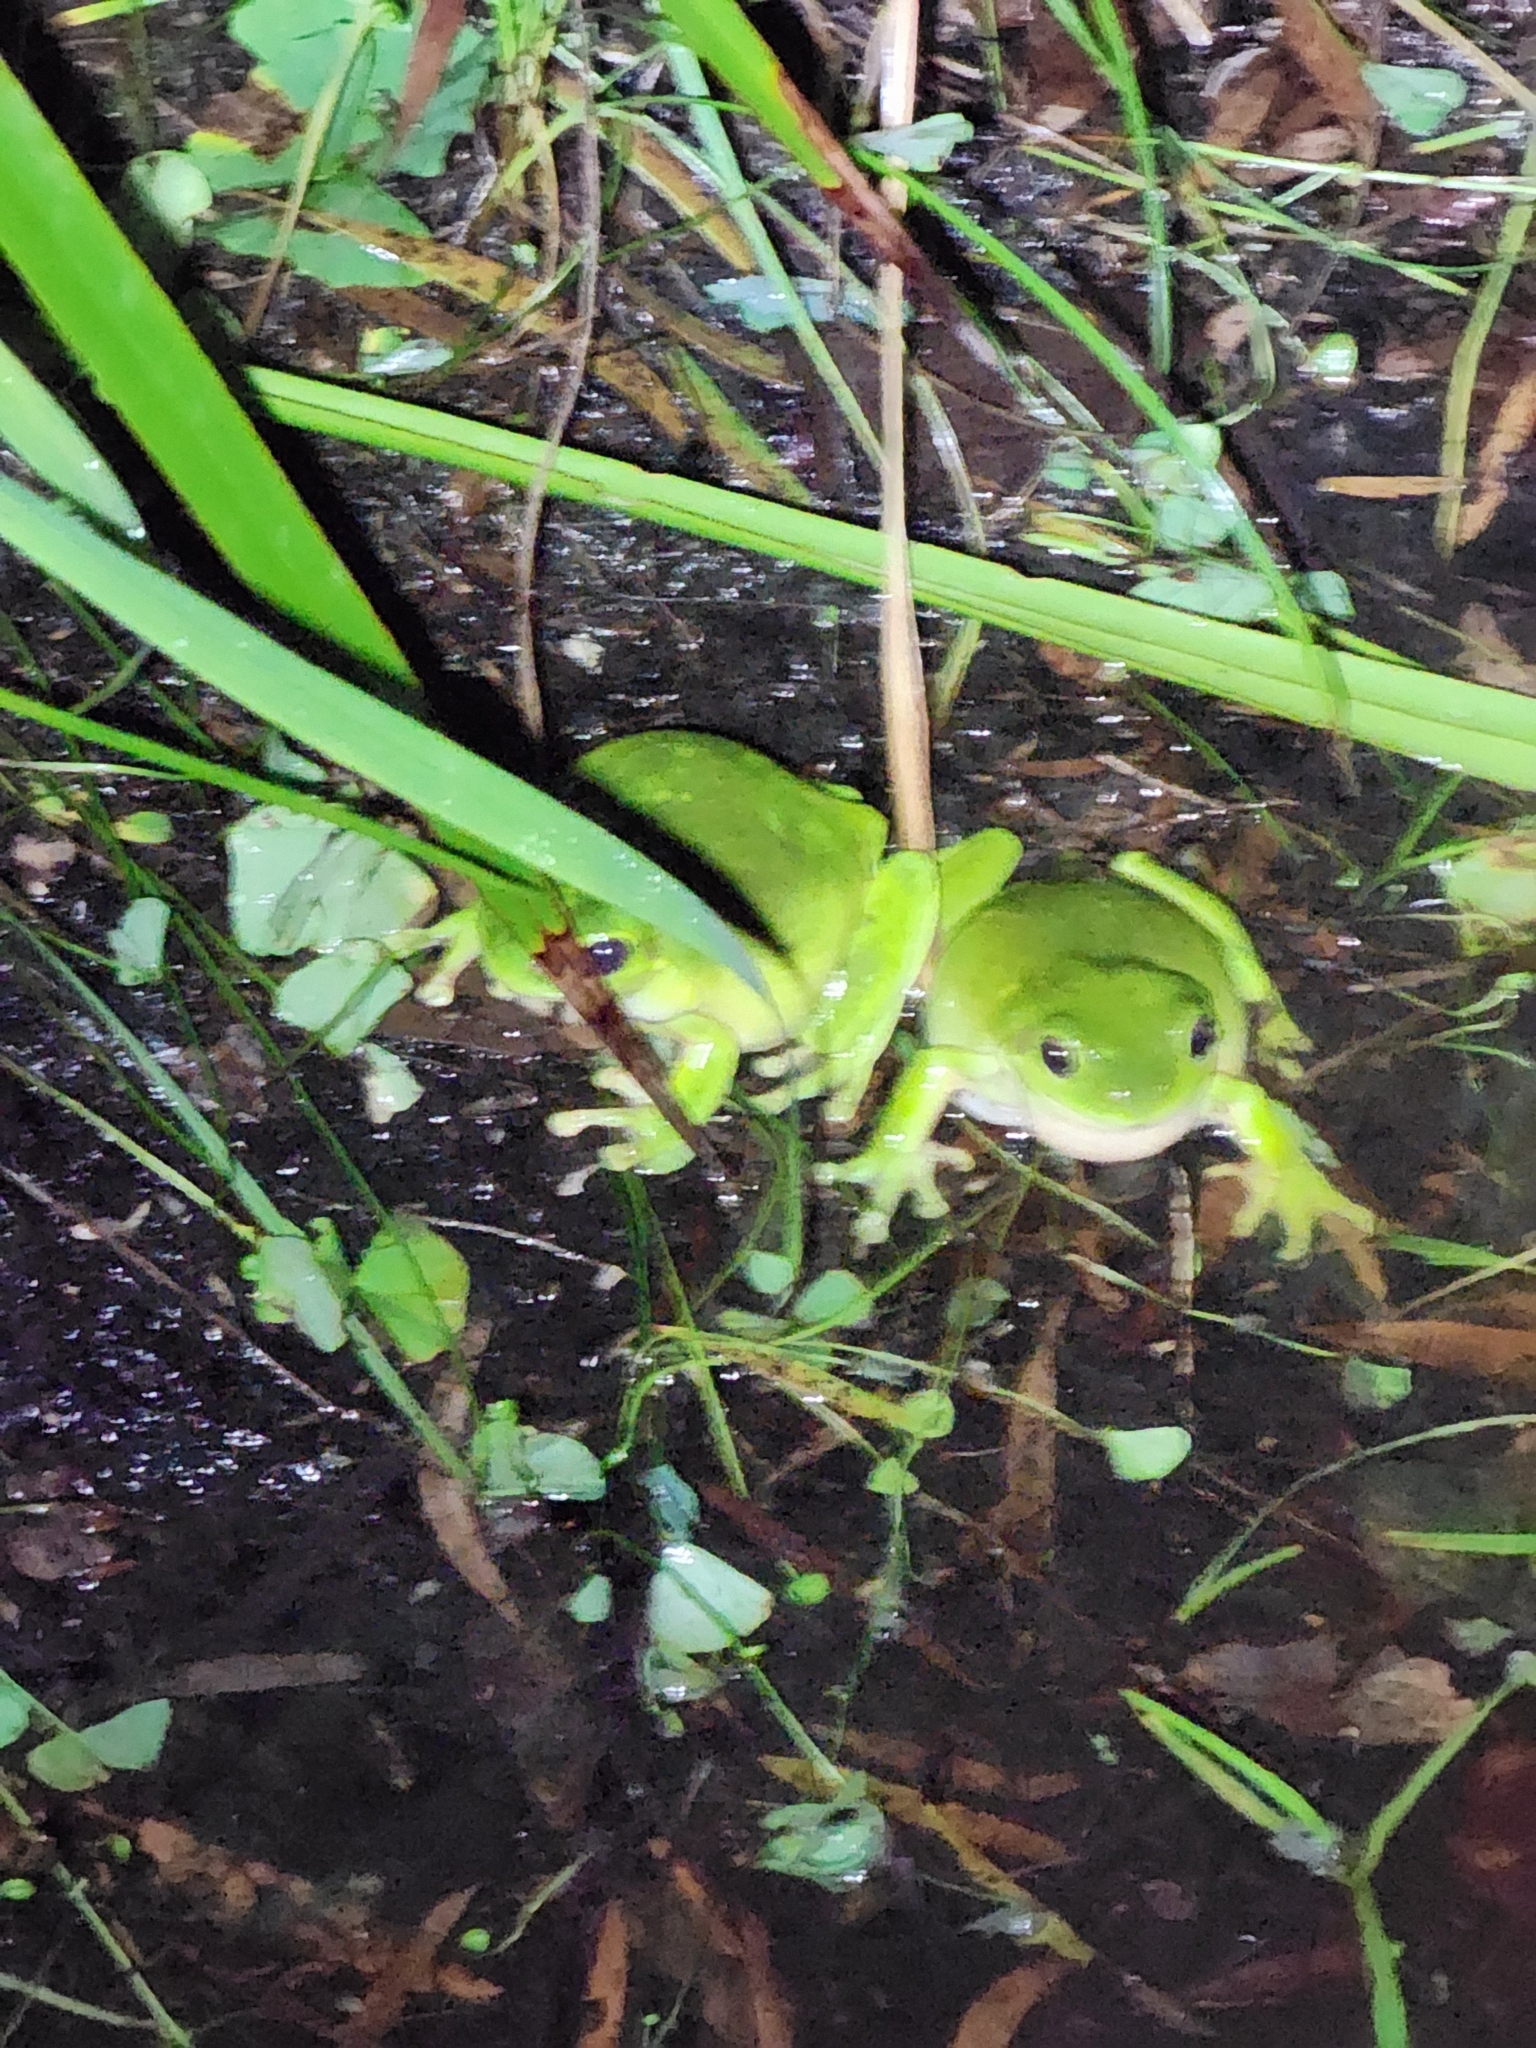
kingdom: Animalia
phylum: Chordata
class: Amphibia
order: Anura
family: Pelodryadidae
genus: Ranoidea
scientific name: Ranoidea caerulea
